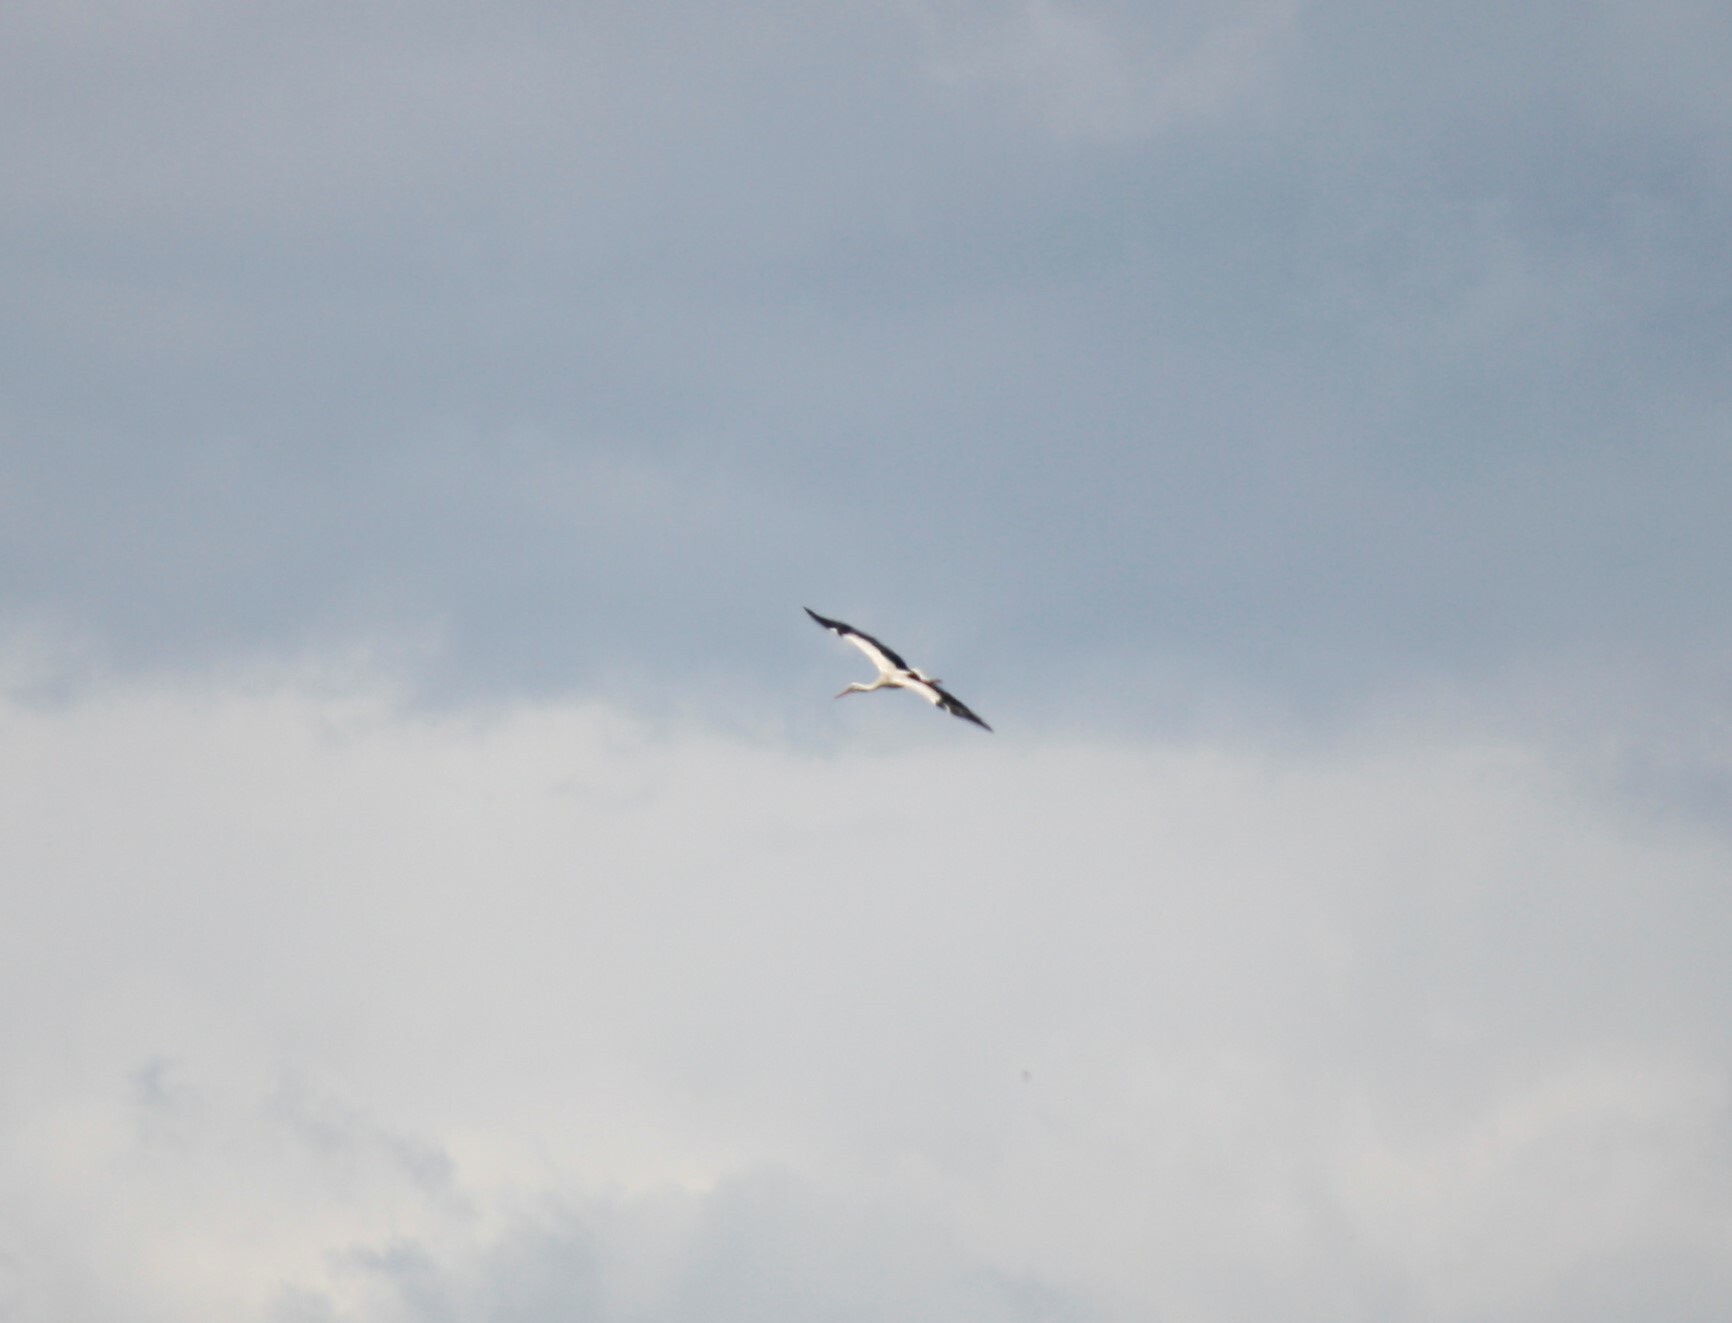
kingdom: Animalia
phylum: Chordata
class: Aves
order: Ciconiiformes
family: Ciconiidae
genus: Ciconia
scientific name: Ciconia ciconia
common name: White stork
